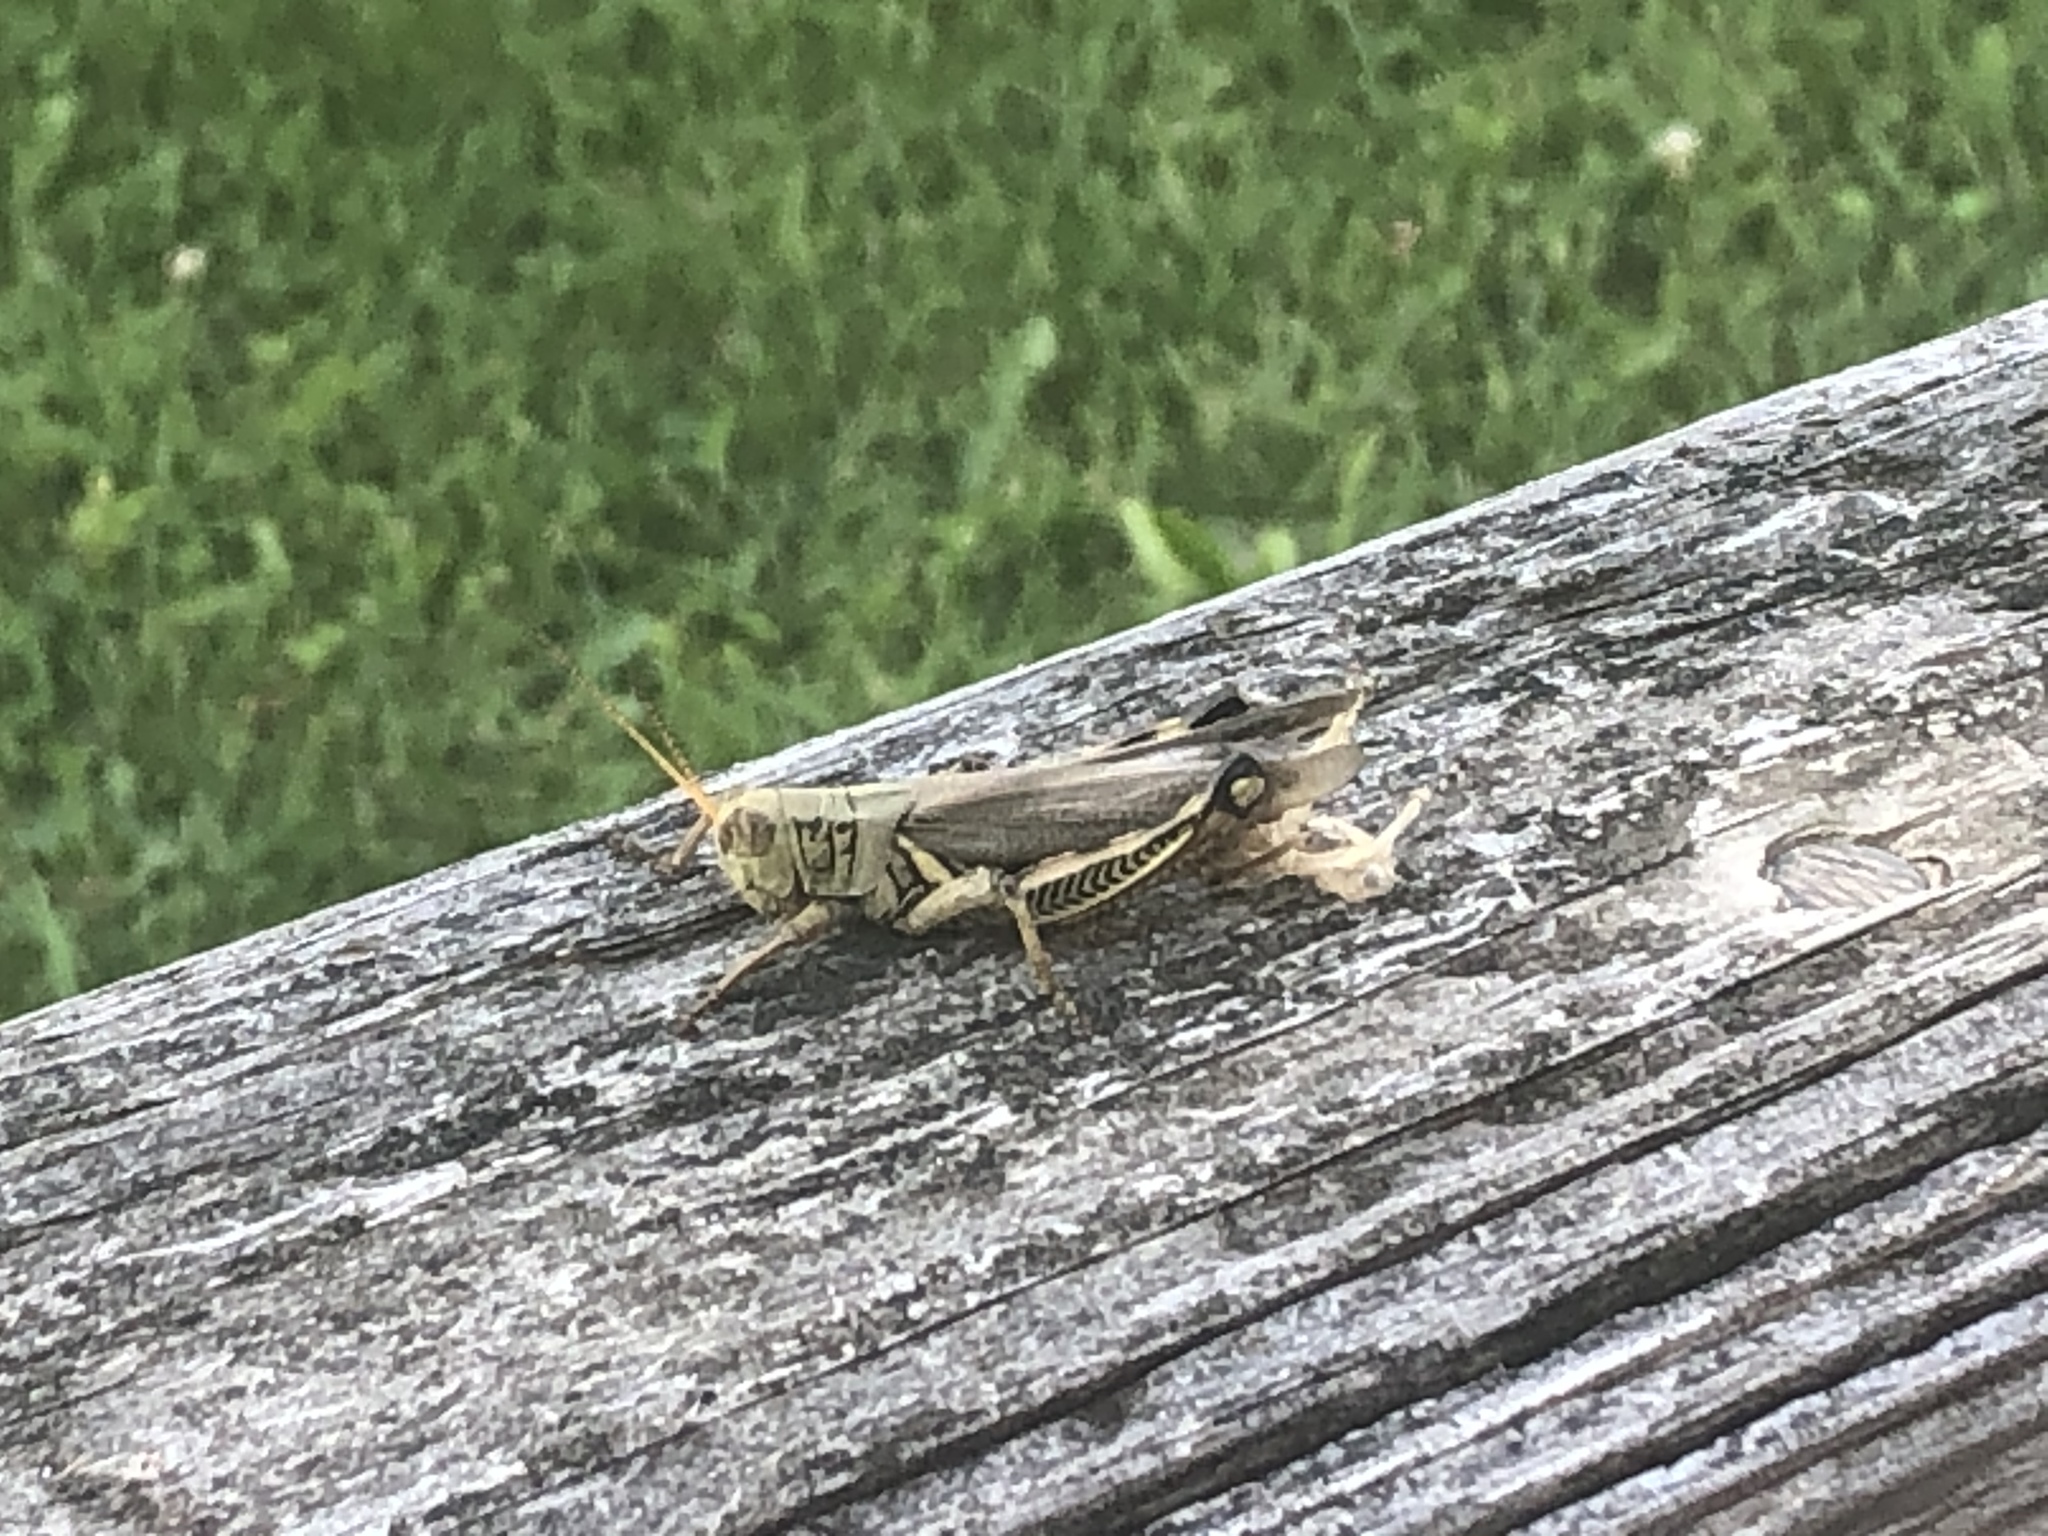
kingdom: Animalia
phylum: Arthropoda
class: Insecta
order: Orthoptera
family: Acrididae
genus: Melanoplus
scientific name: Melanoplus differentialis
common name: Differential grasshopper
